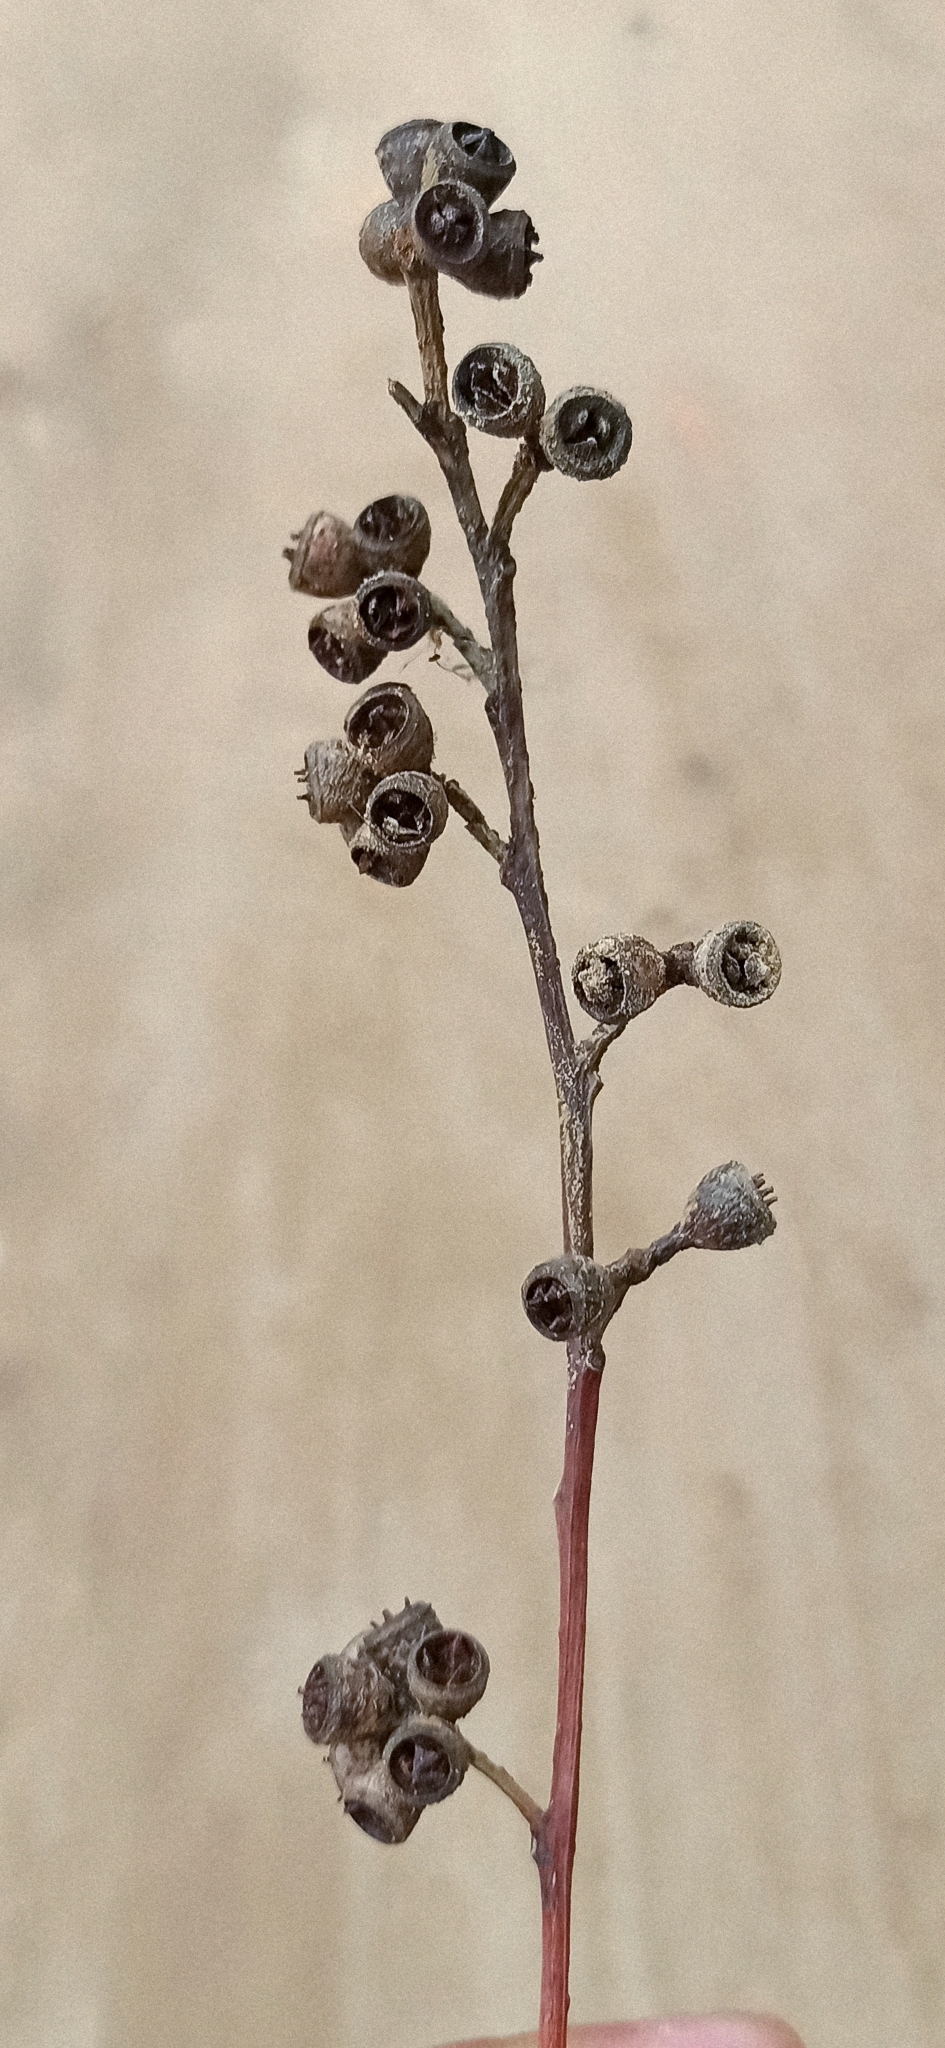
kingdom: Plantae
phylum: Tracheophyta
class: Magnoliopsida
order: Myrtales
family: Myrtaceae
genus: Eucalyptus
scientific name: Eucalyptus saligna
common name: Blue gum
